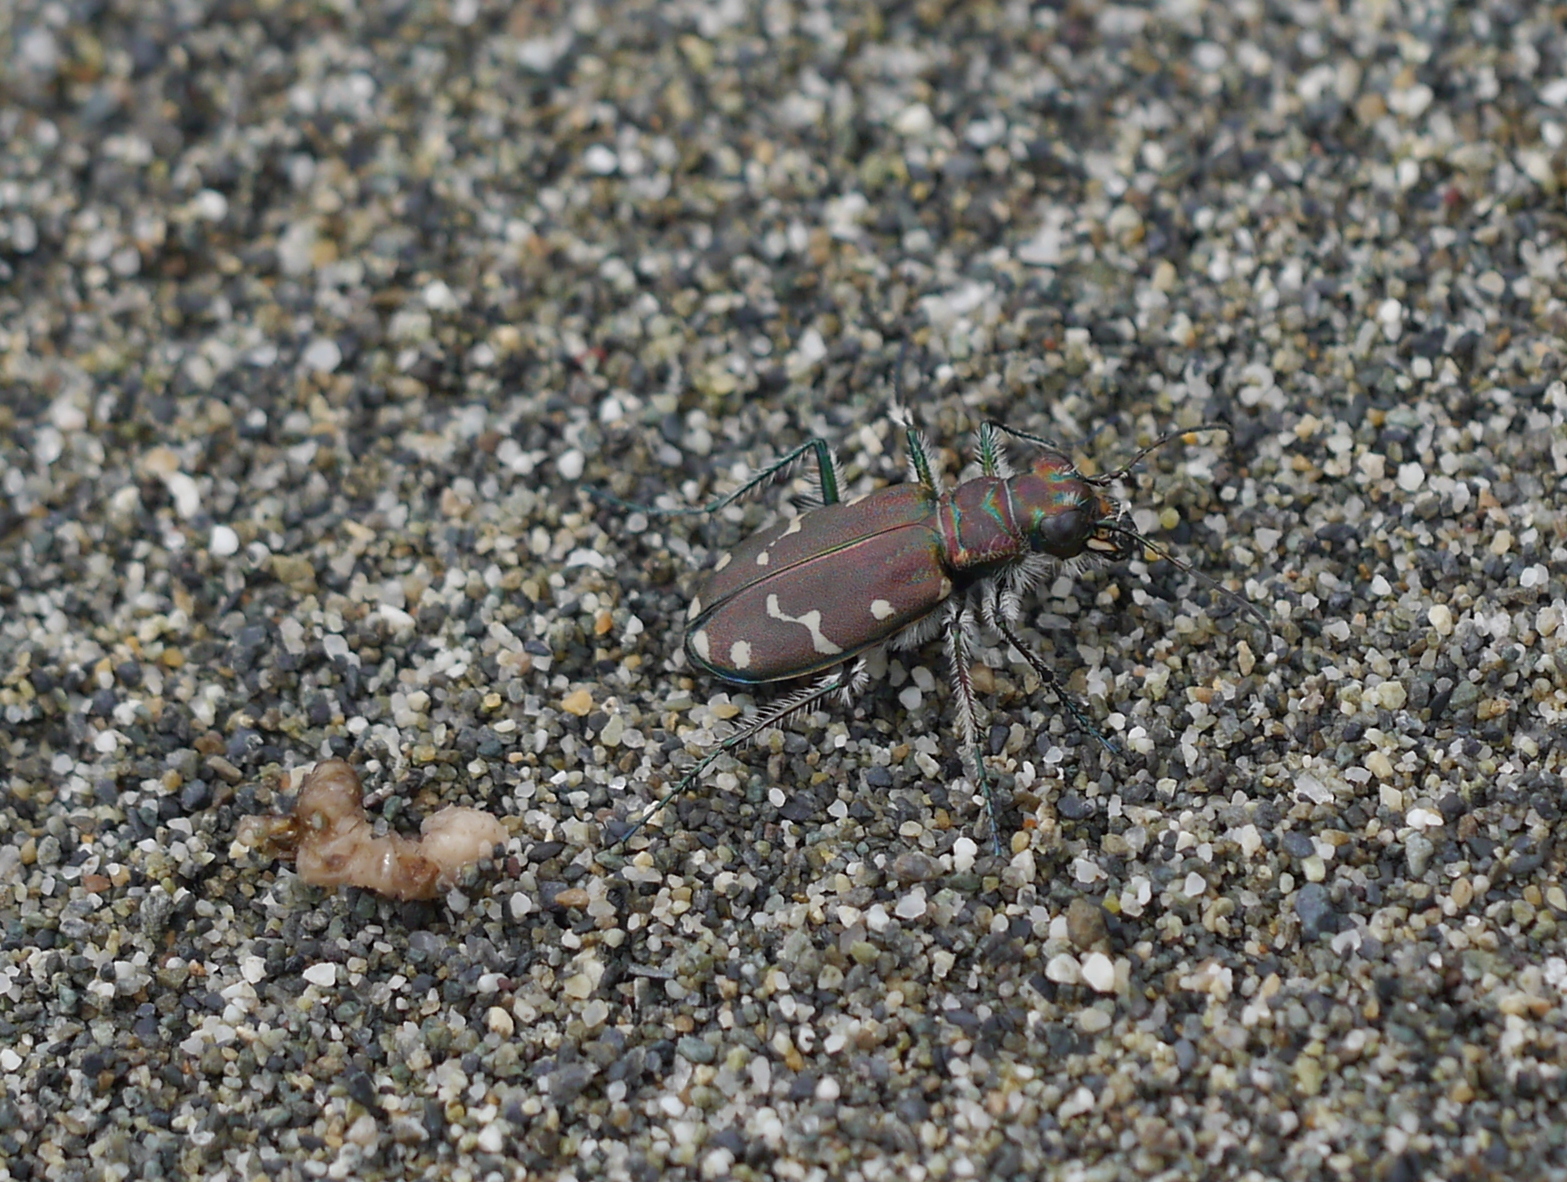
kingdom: Animalia
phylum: Arthropoda
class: Insecta
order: Coleoptera
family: Carabidae
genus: Cicindela
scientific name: Cicindela oregona
